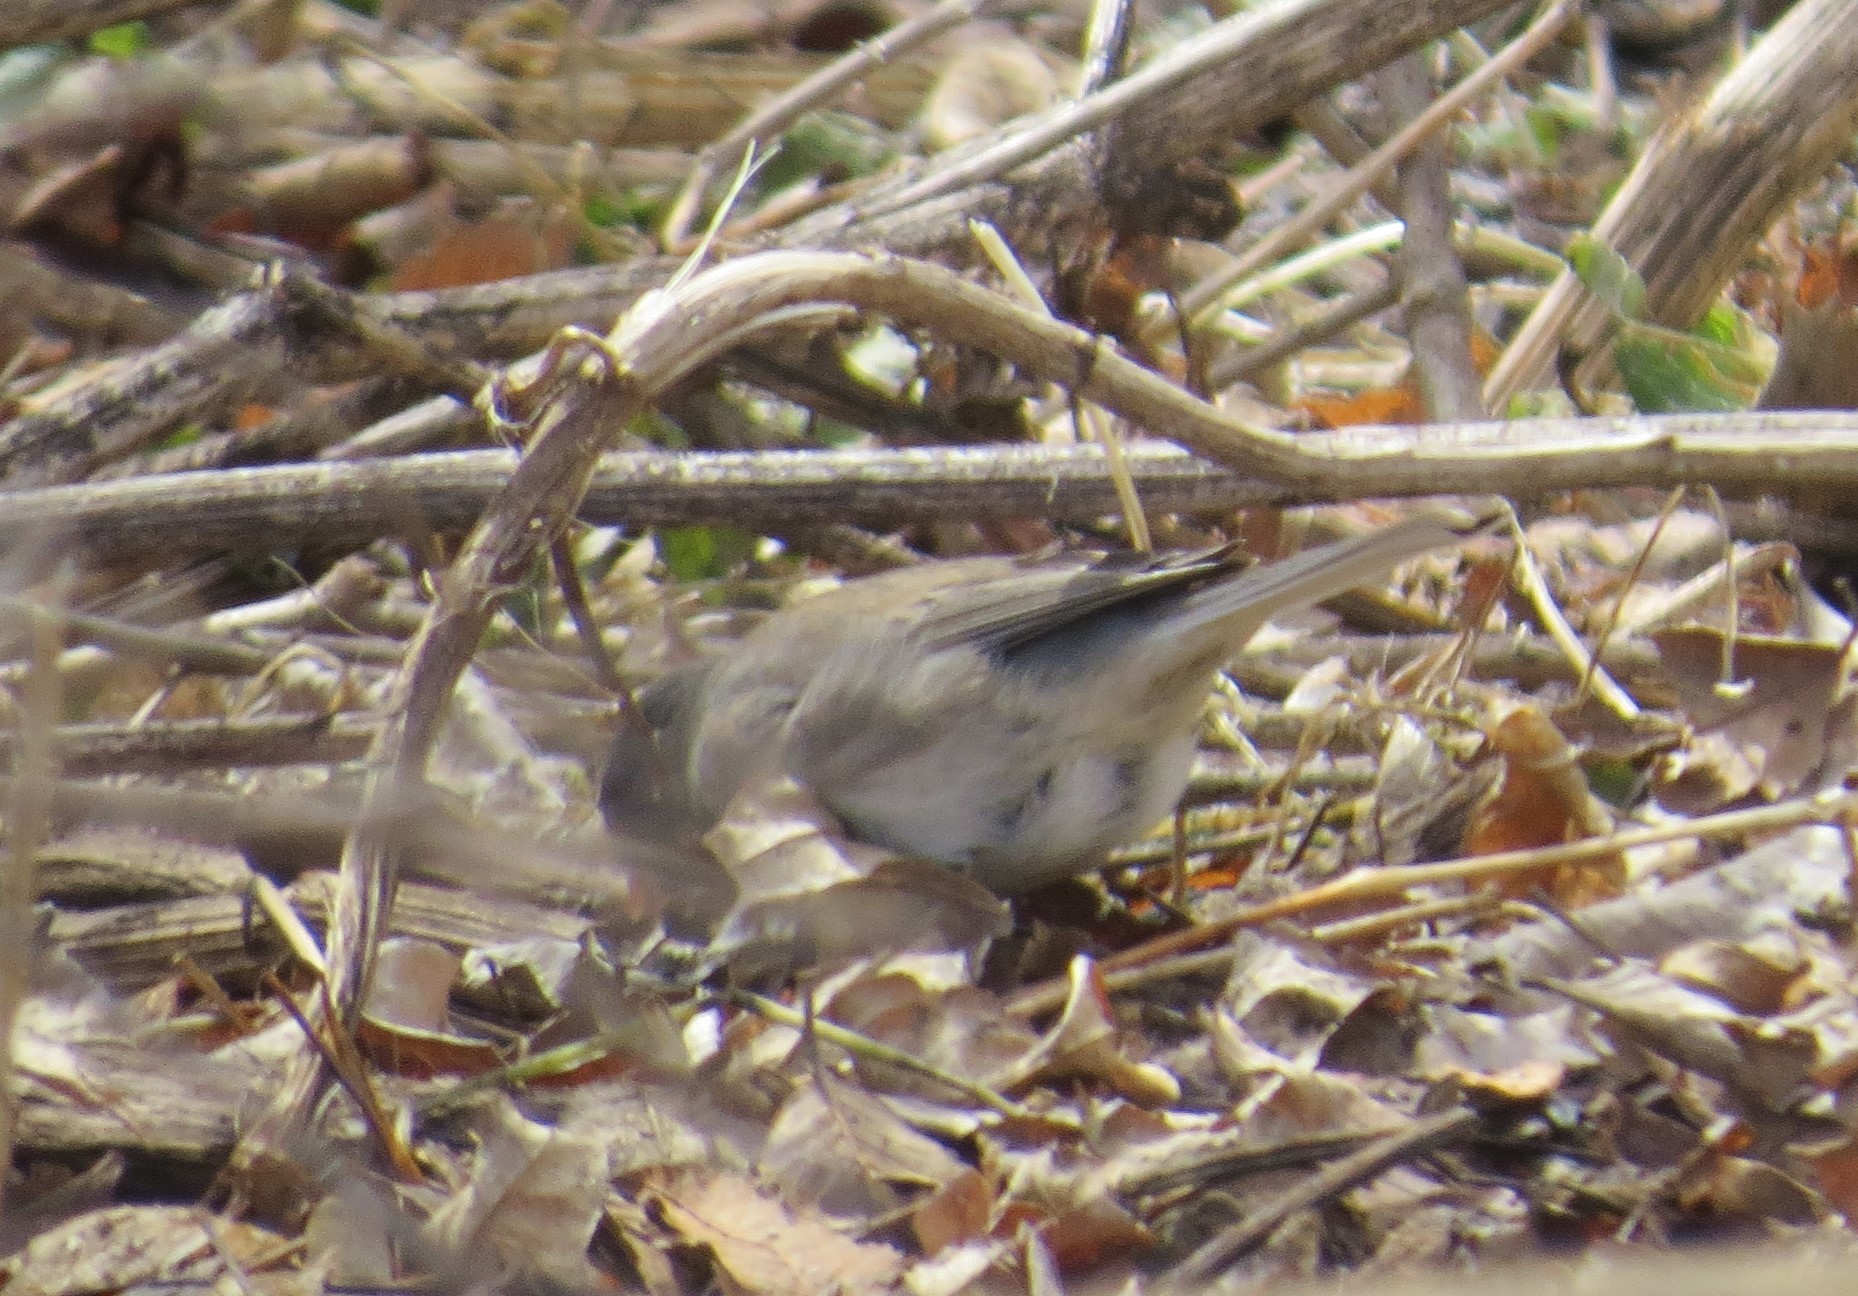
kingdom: Animalia
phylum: Chordata
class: Aves
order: Passeriformes
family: Passerellidae
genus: Junco
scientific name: Junco hyemalis
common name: Dark-eyed junco
